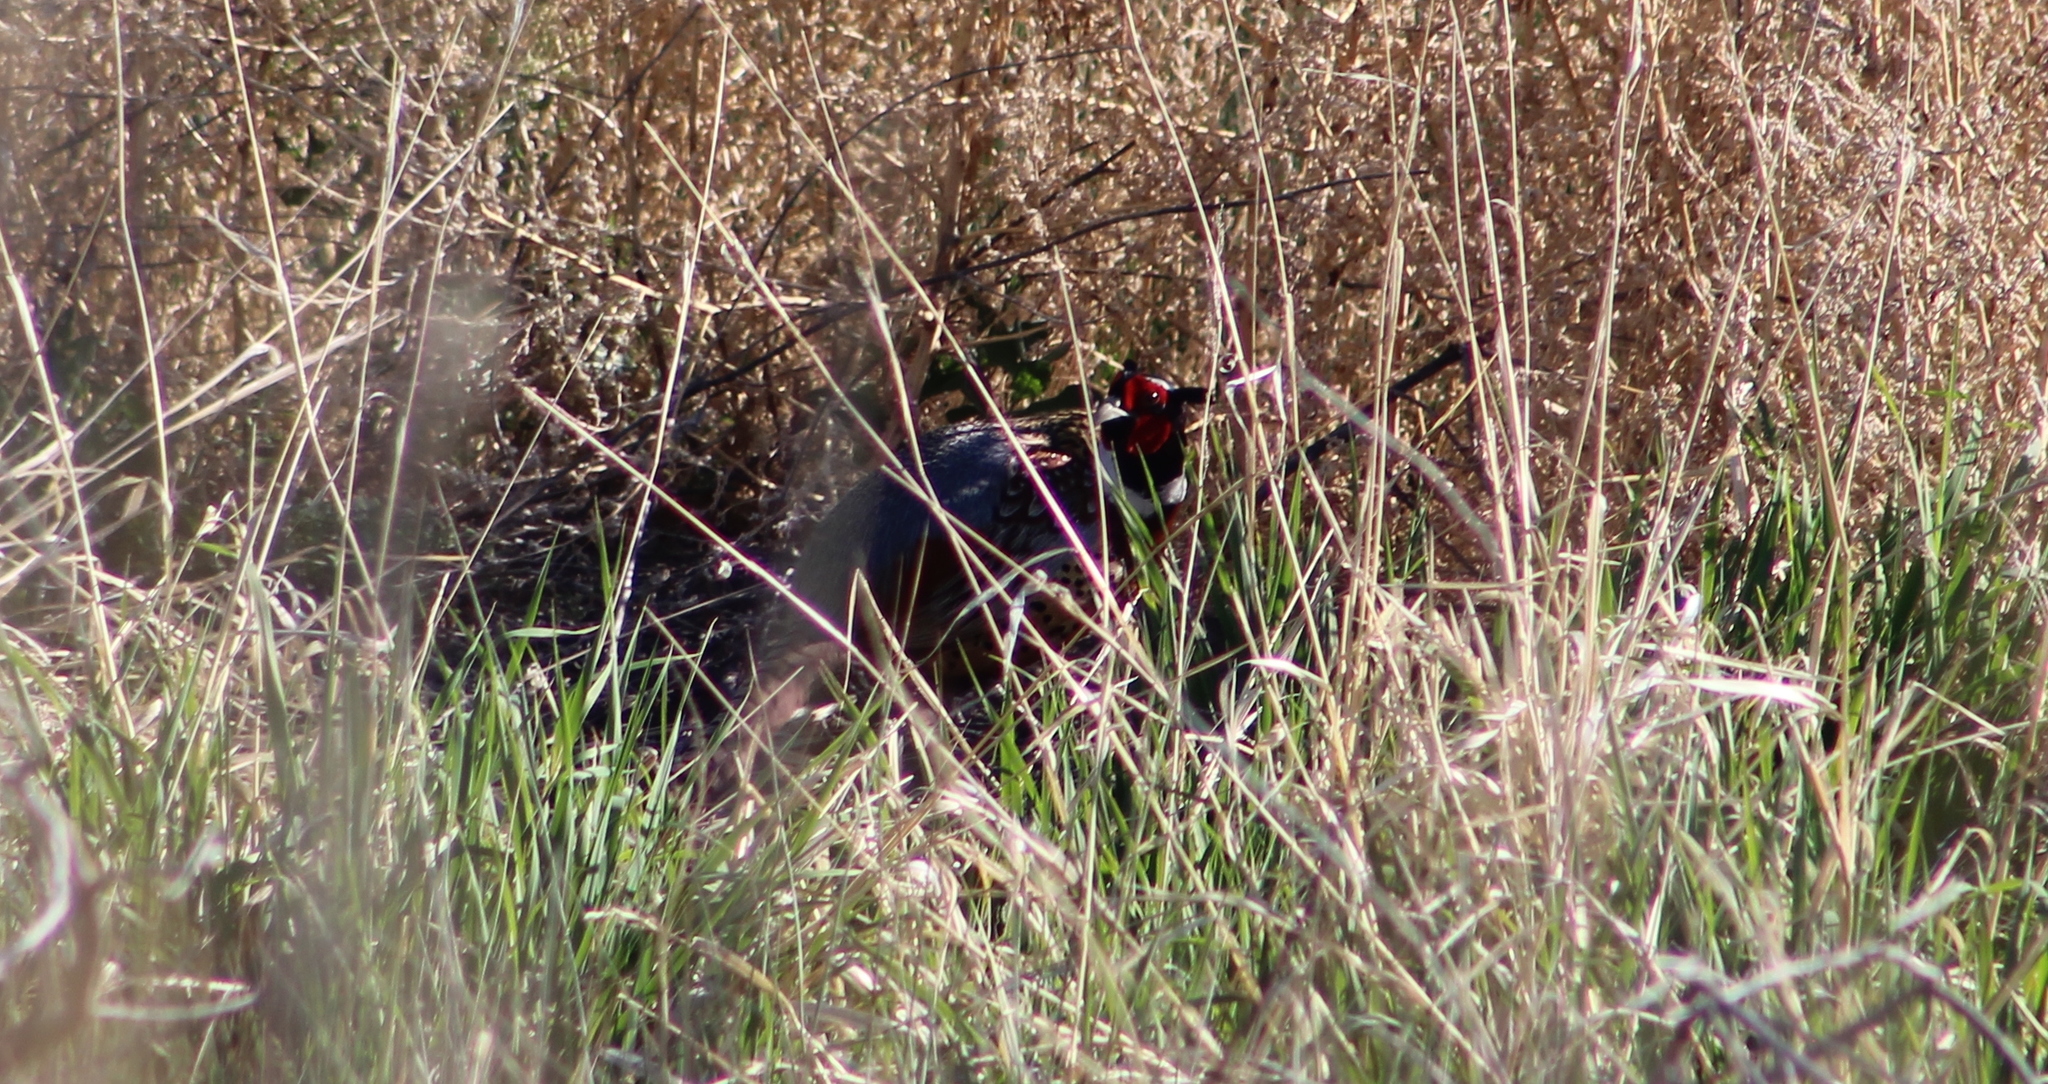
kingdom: Animalia
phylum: Chordata
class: Aves
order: Galliformes
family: Phasianidae
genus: Phasianus
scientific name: Phasianus colchicus
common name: Common pheasant
